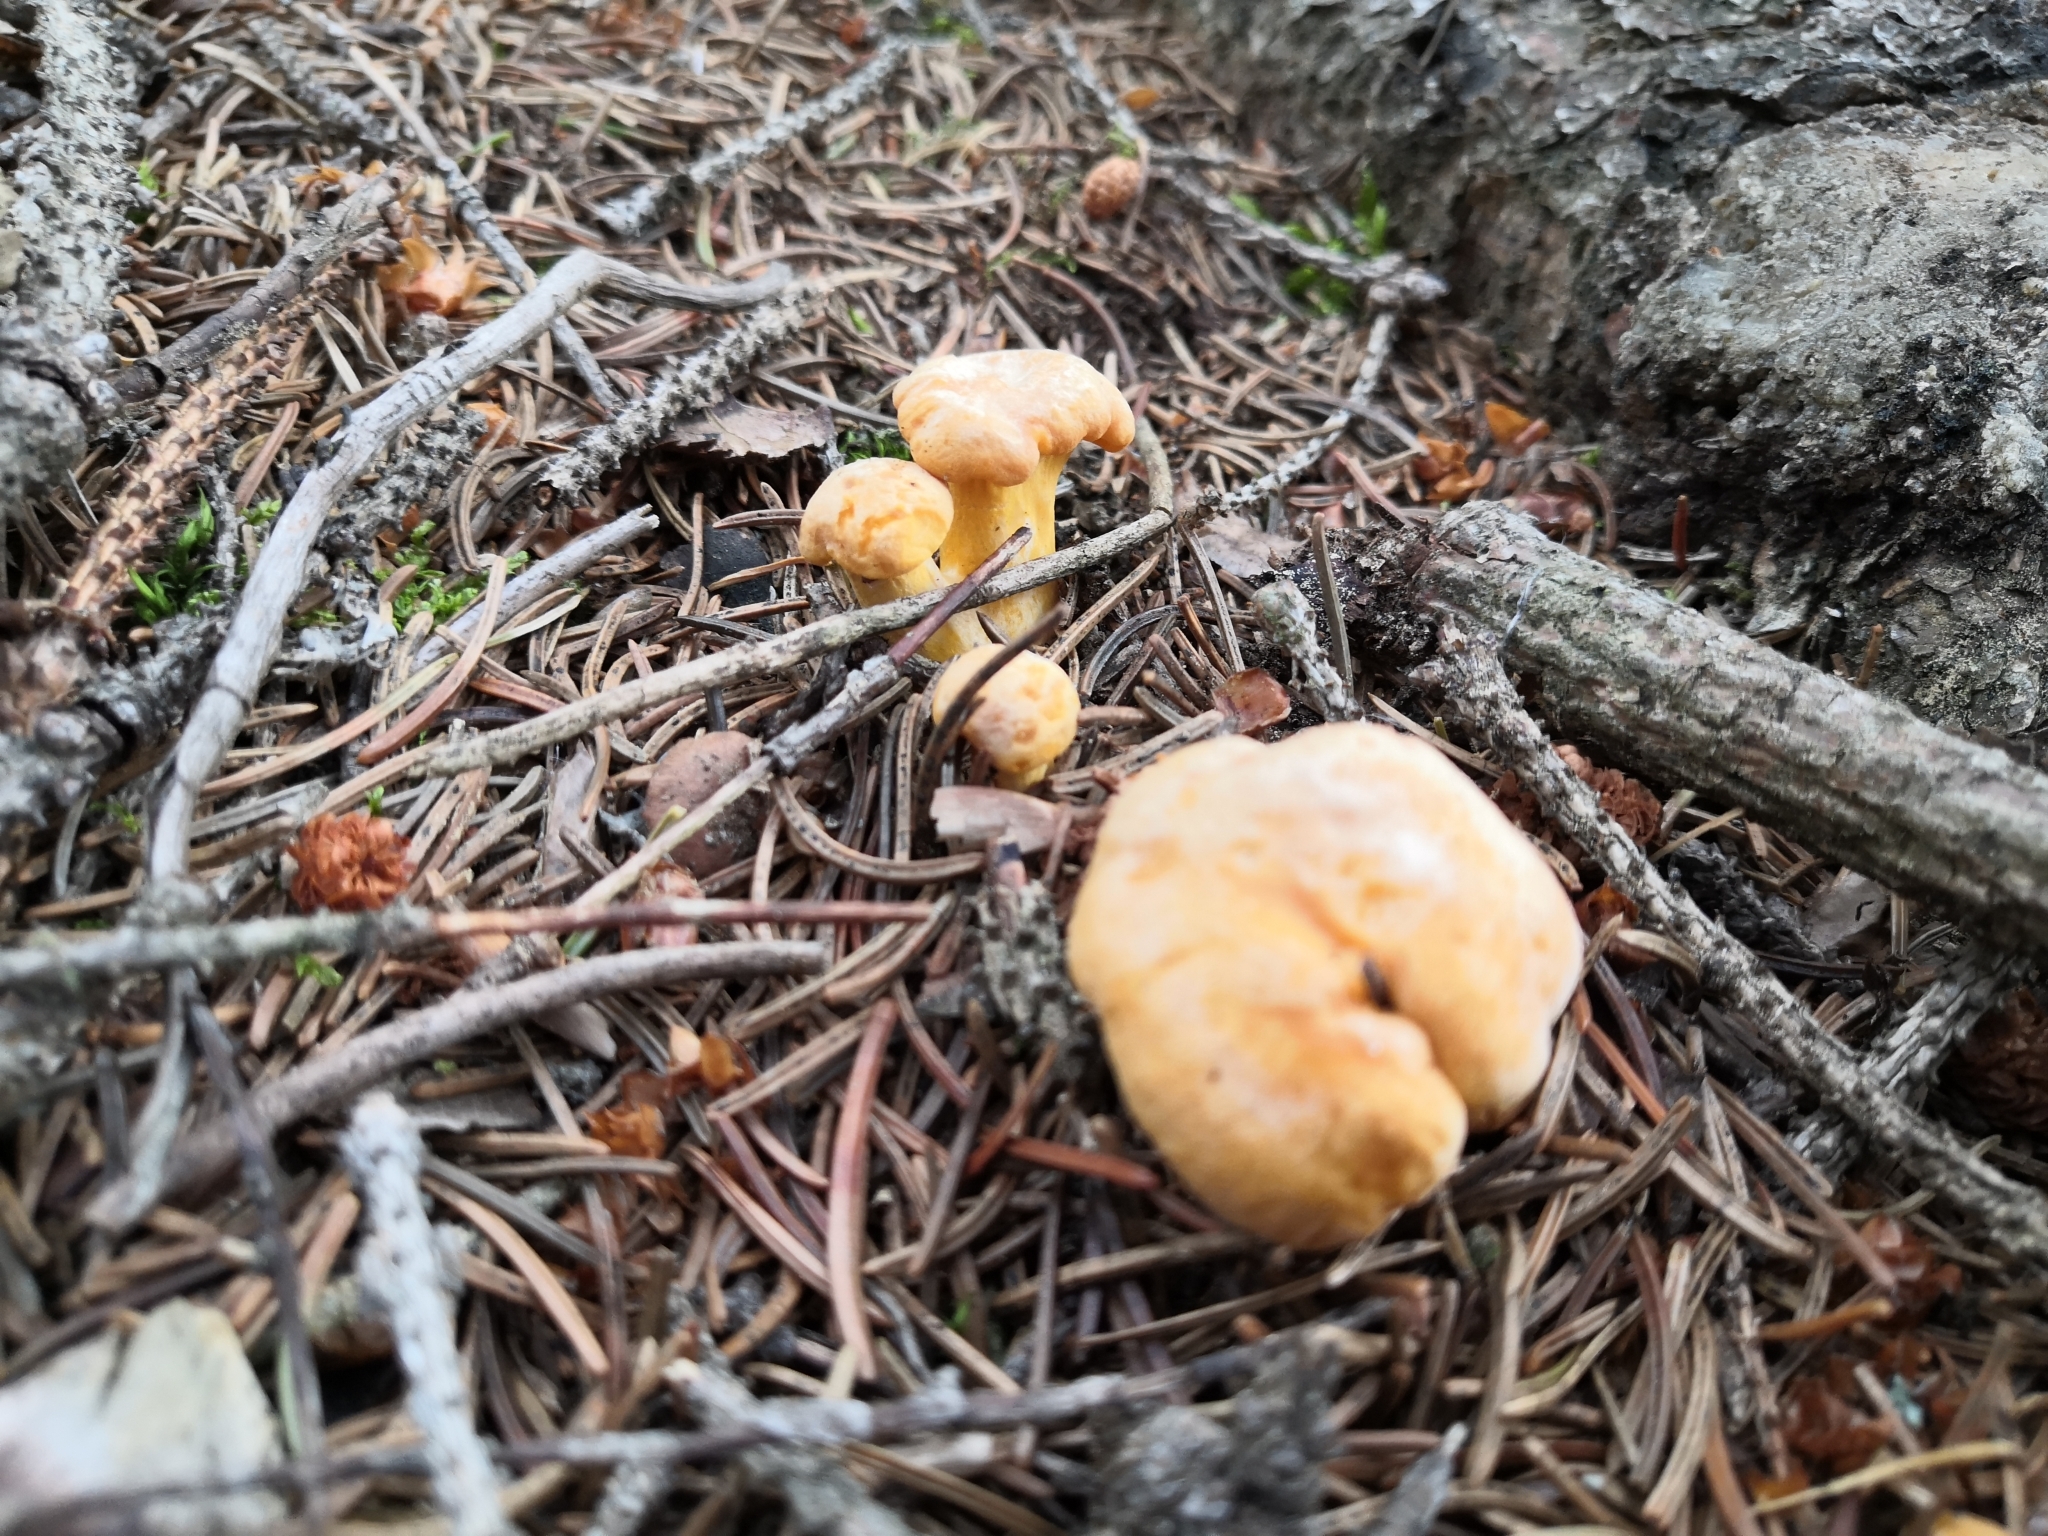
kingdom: Fungi
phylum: Basidiomycota
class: Agaricomycetes
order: Cantharellales
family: Hydnaceae
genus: Cantharellus
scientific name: Cantharellus cibarius
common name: Chanterelle
